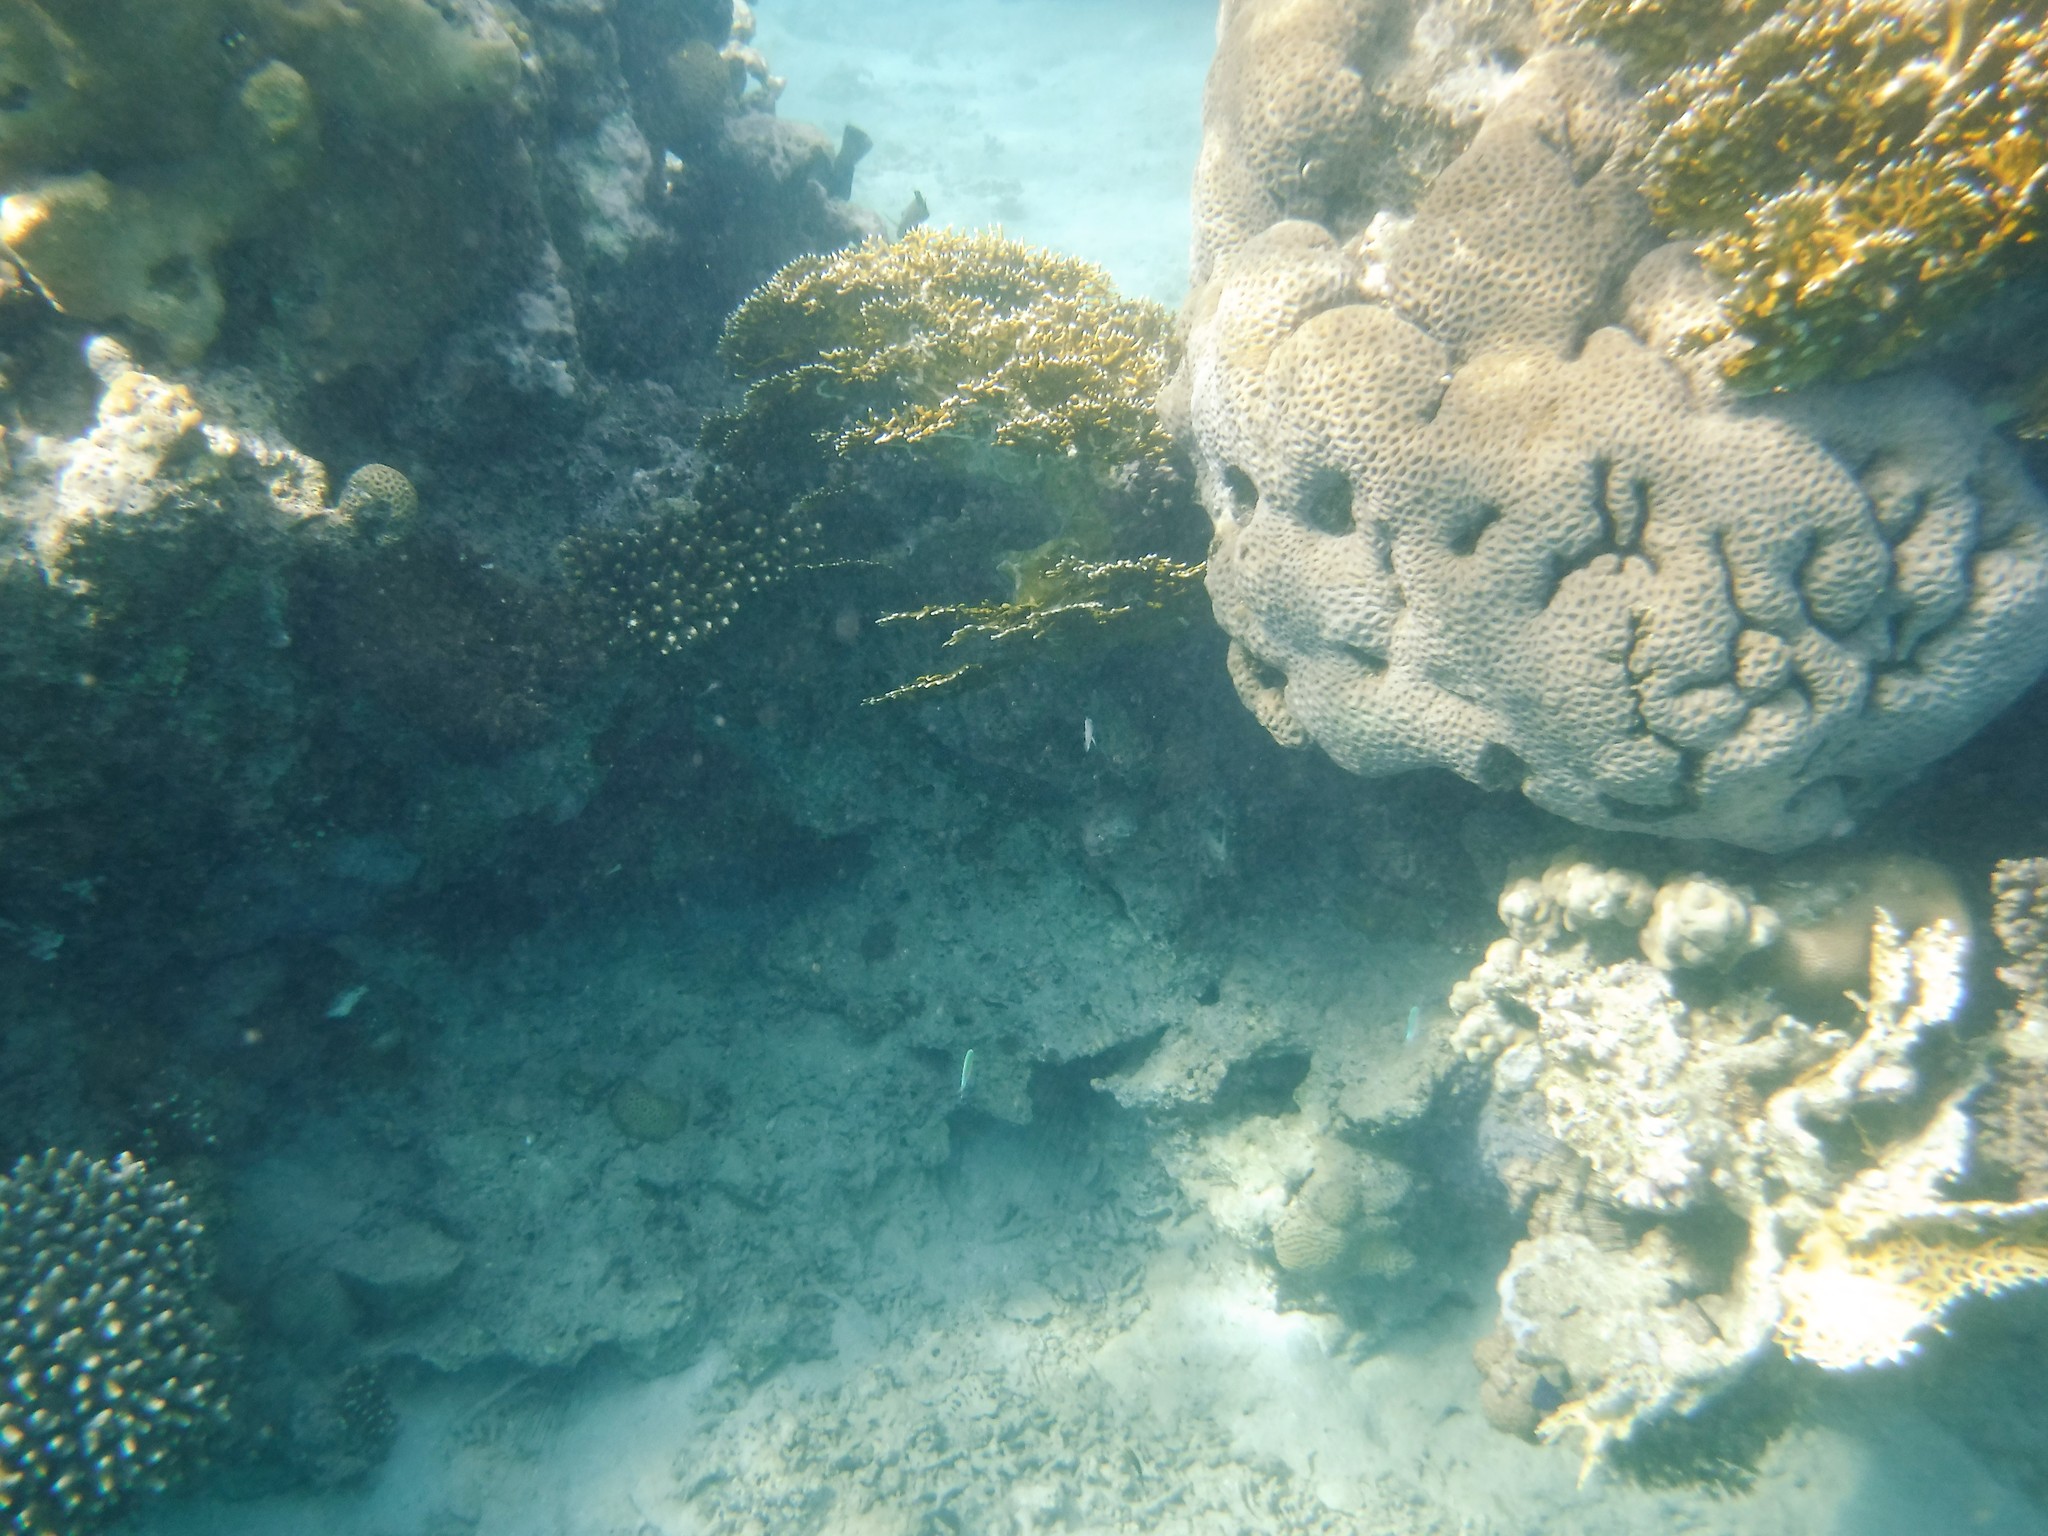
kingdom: Animalia
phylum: Cnidaria
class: Hydrozoa
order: Anthoathecata
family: Milleporidae
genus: Millepora
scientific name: Millepora dichotoma
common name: Ramified fire coral
